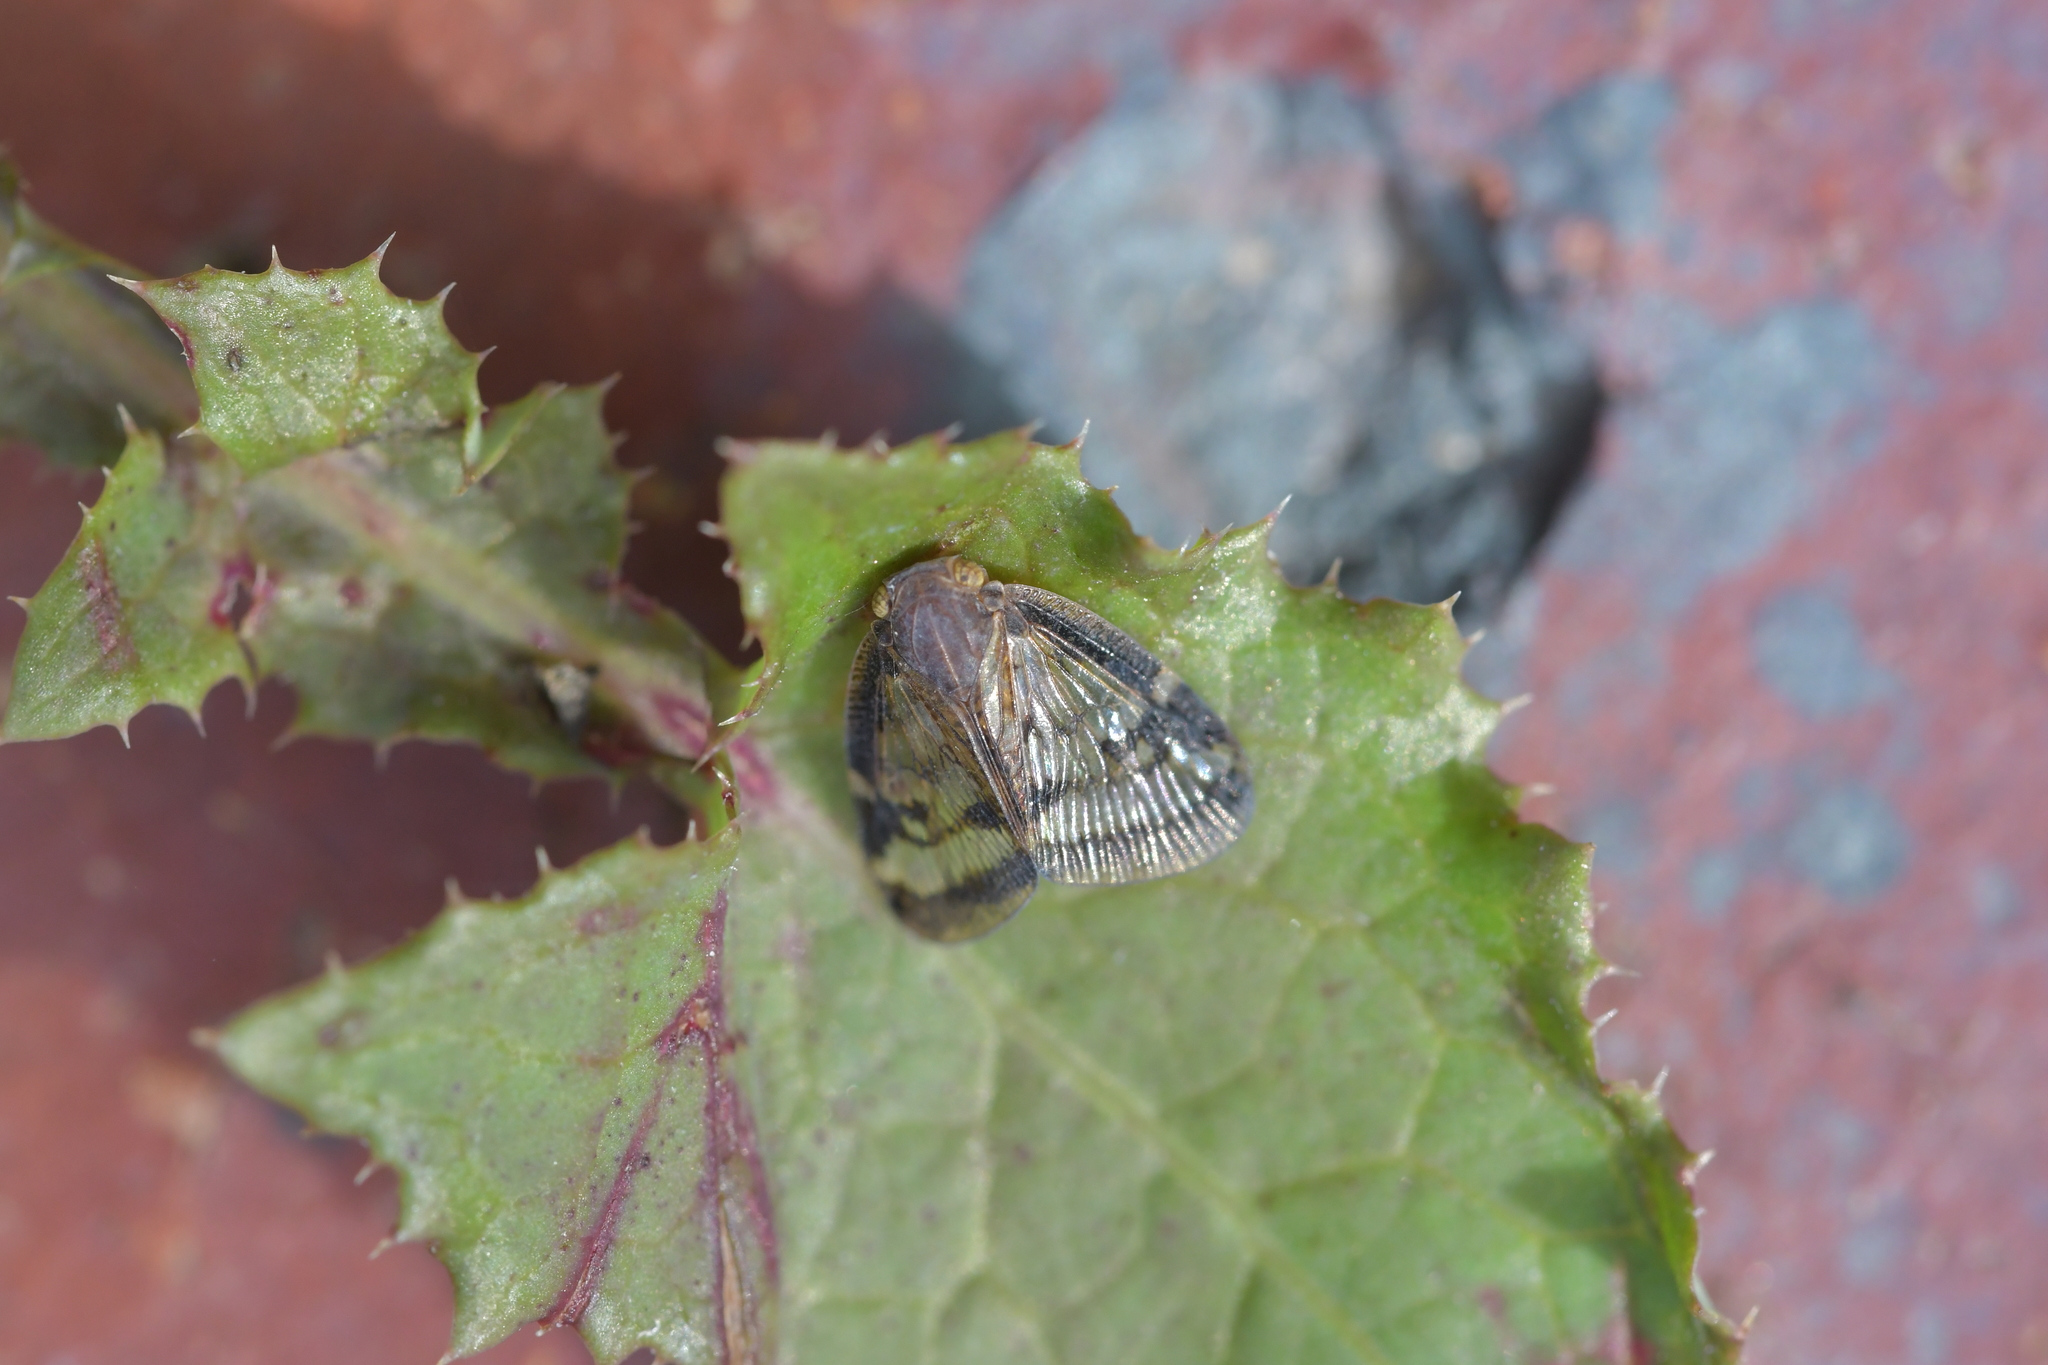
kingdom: Animalia
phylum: Arthropoda
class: Insecta
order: Hemiptera
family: Ricaniidae
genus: Scolypopa
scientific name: Scolypopa australis
